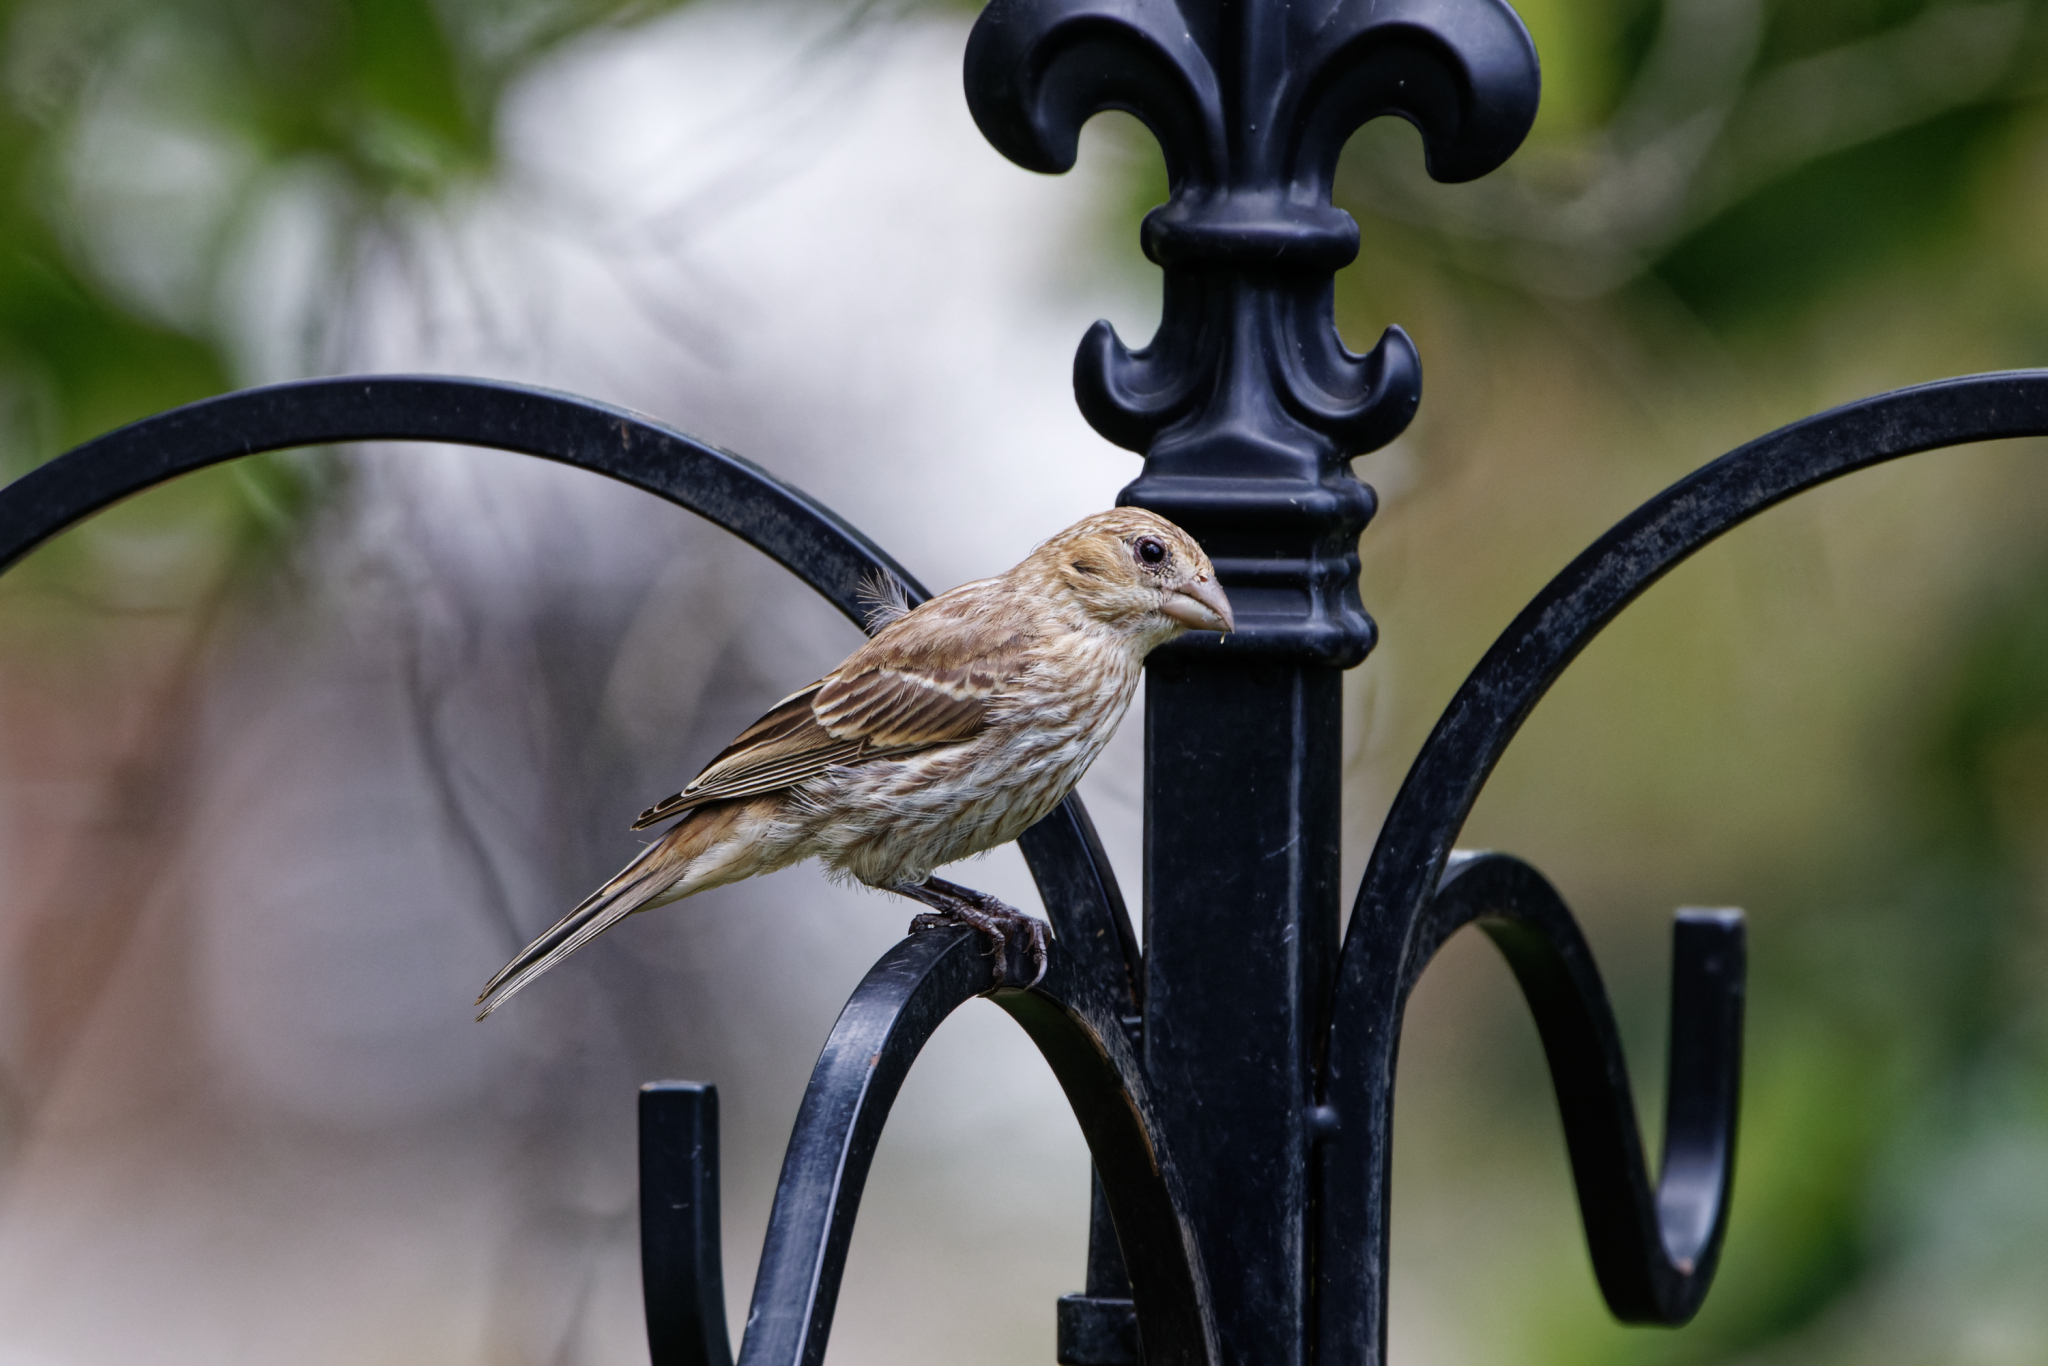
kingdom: Animalia
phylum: Chordata
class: Aves
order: Passeriformes
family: Fringillidae
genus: Haemorhous
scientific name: Haemorhous mexicanus
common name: House finch
